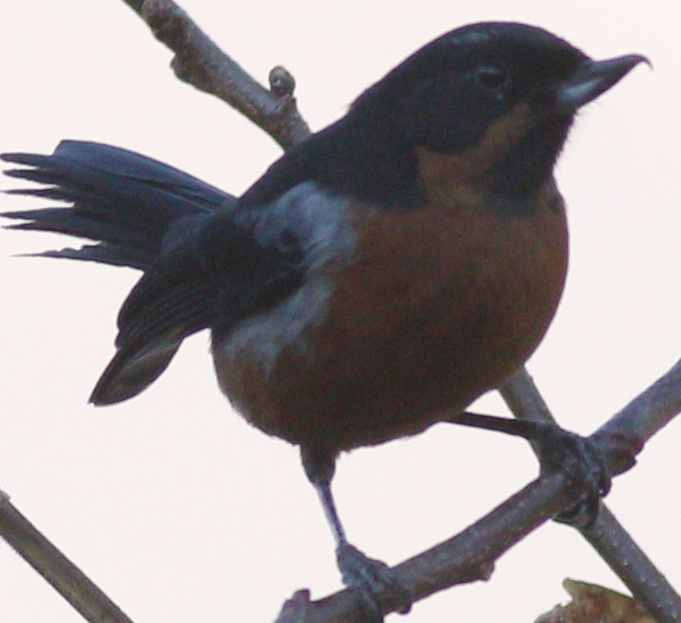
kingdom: Animalia
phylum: Chordata
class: Aves
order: Passeriformes
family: Thraupidae
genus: Diglossa
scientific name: Diglossa brunneiventris
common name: Black-throated flowerpiercer
